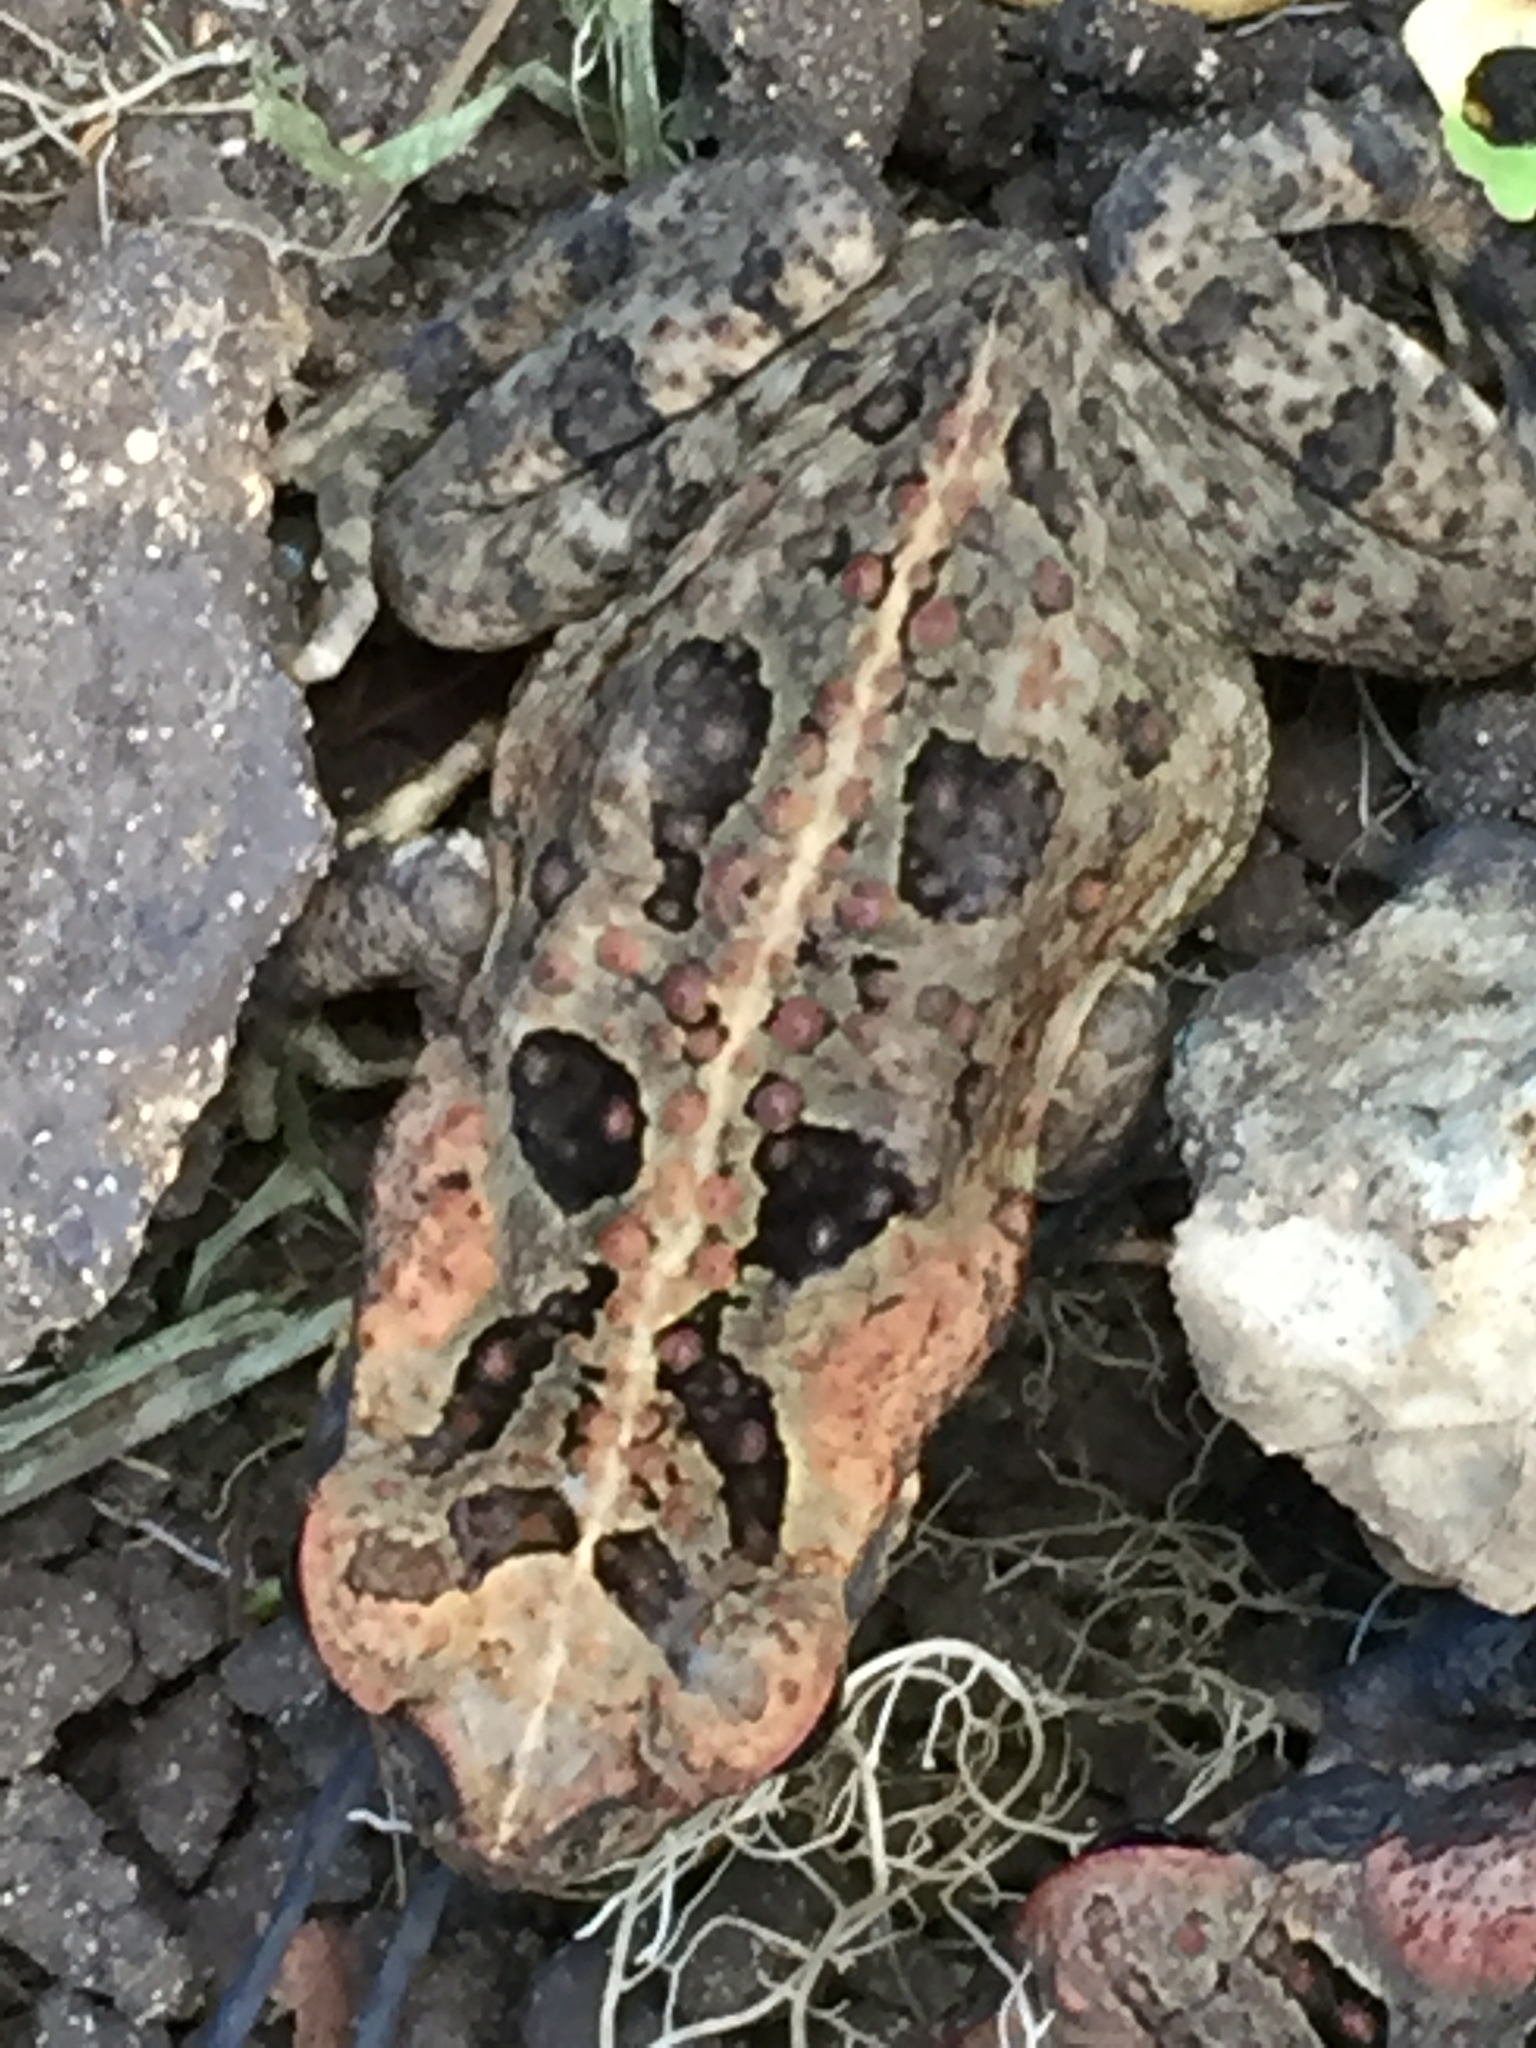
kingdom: Animalia
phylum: Chordata
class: Amphibia
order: Anura
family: Bufonidae
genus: Rhinella
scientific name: Rhinella marina
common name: Cane toad
